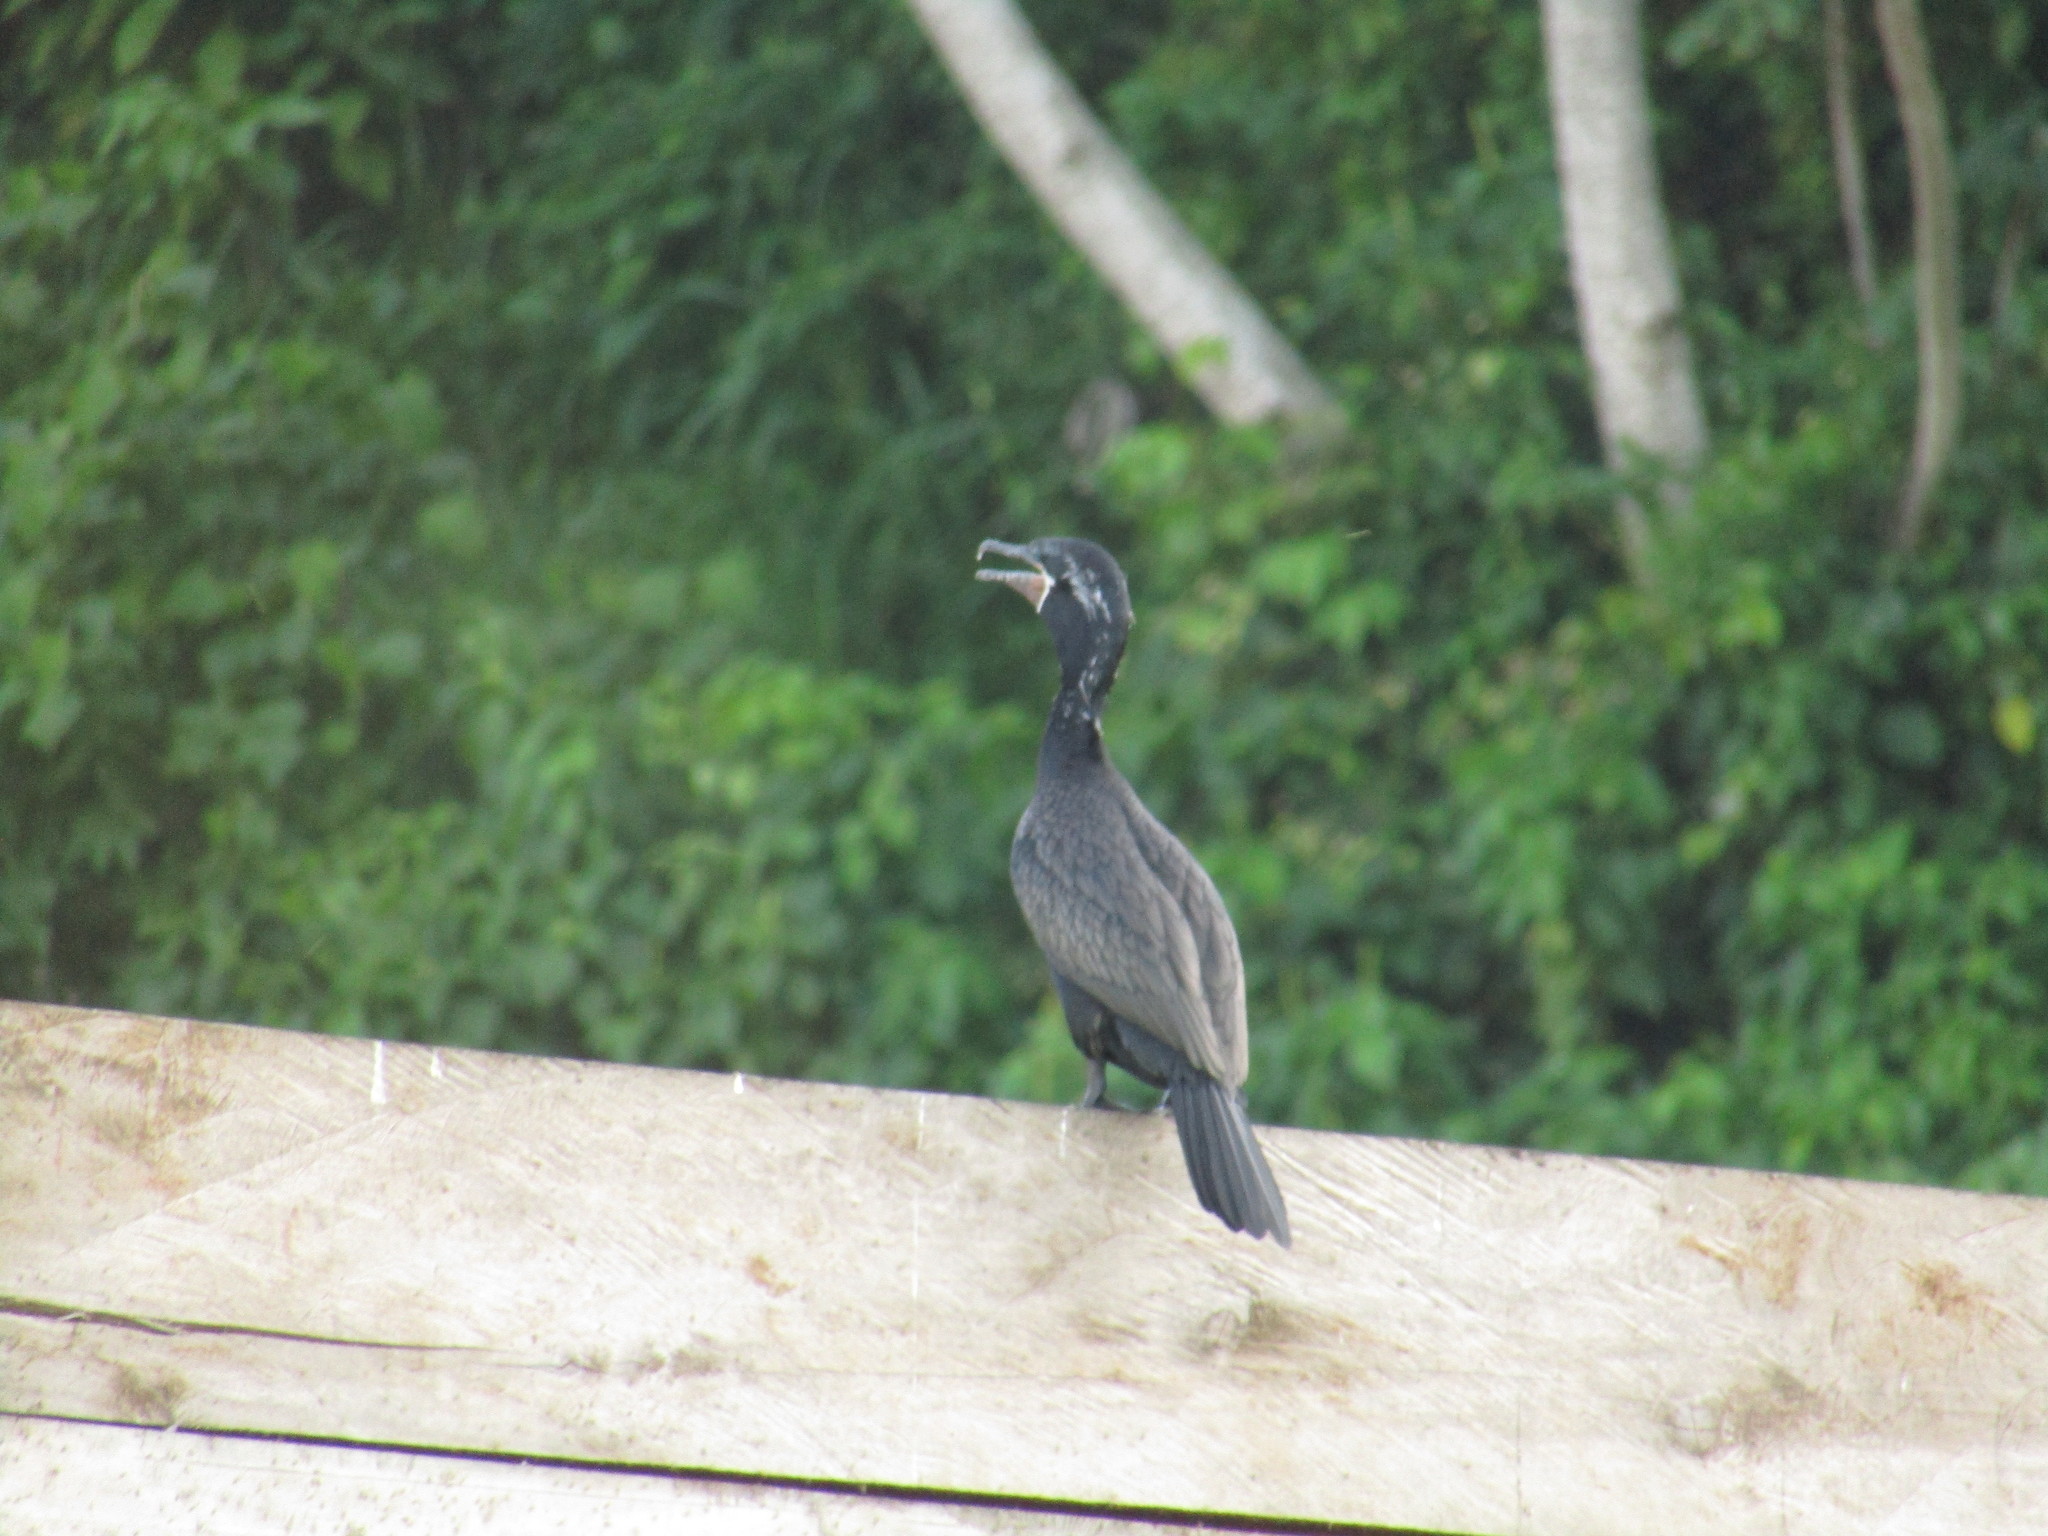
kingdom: Animalia
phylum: Chordata
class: Aves
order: Suliformes
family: Phalacrocoracidae
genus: Phalacrocorax
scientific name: Phalacrocorax brasilianus
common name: Neotropic cormorant
